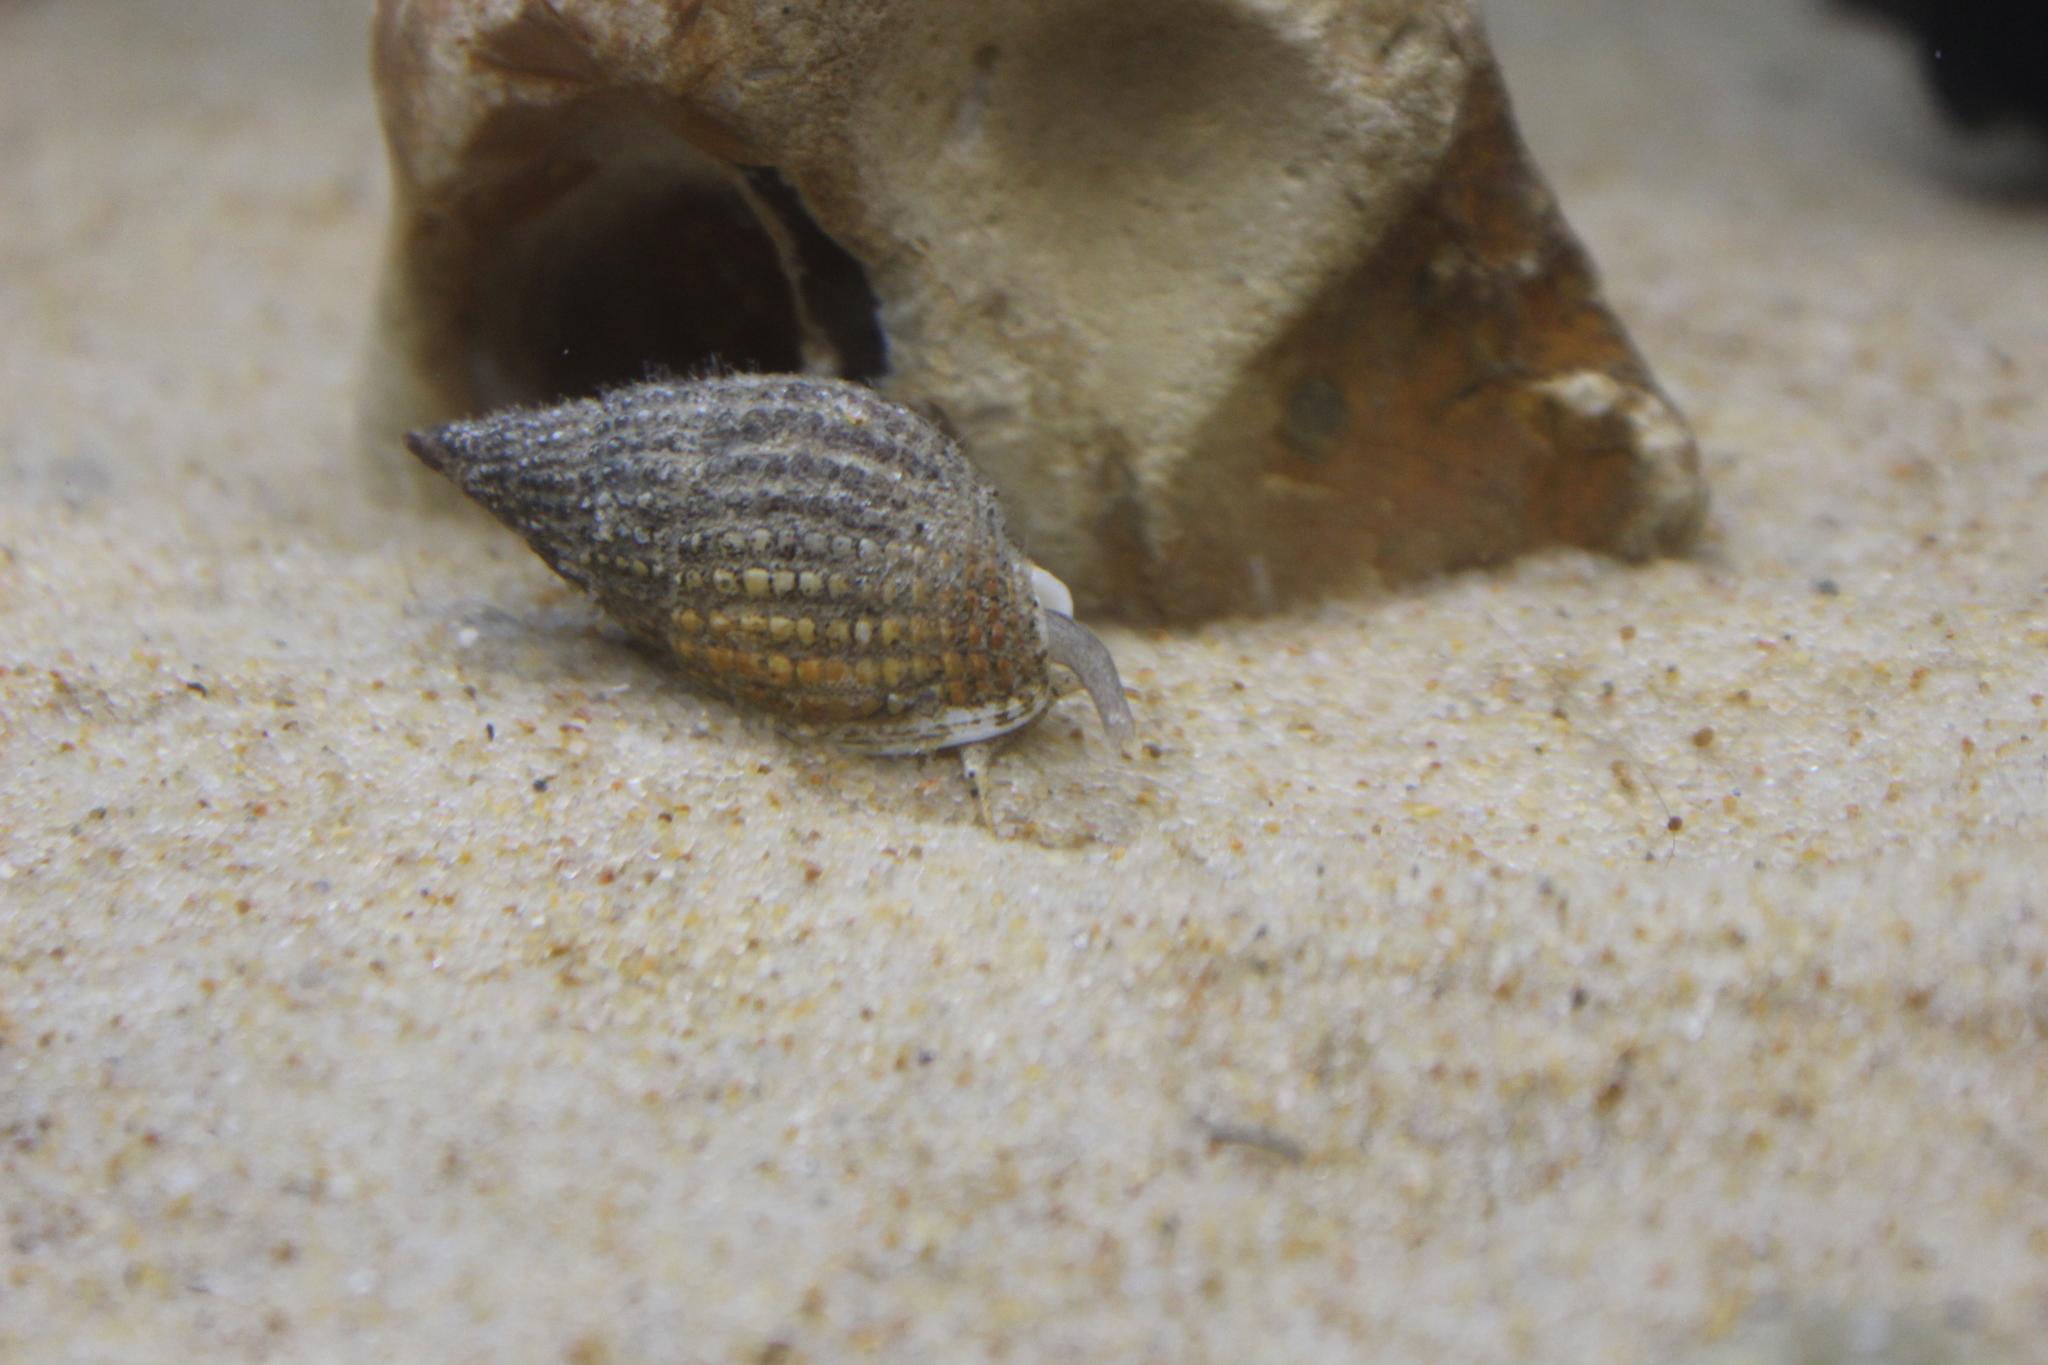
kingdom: Animalia
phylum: Mollusca
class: Gastropoda
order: Neogastropoda
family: Nassariidae
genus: Tritia
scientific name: Tritia reticulata
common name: Netted dog whelk
